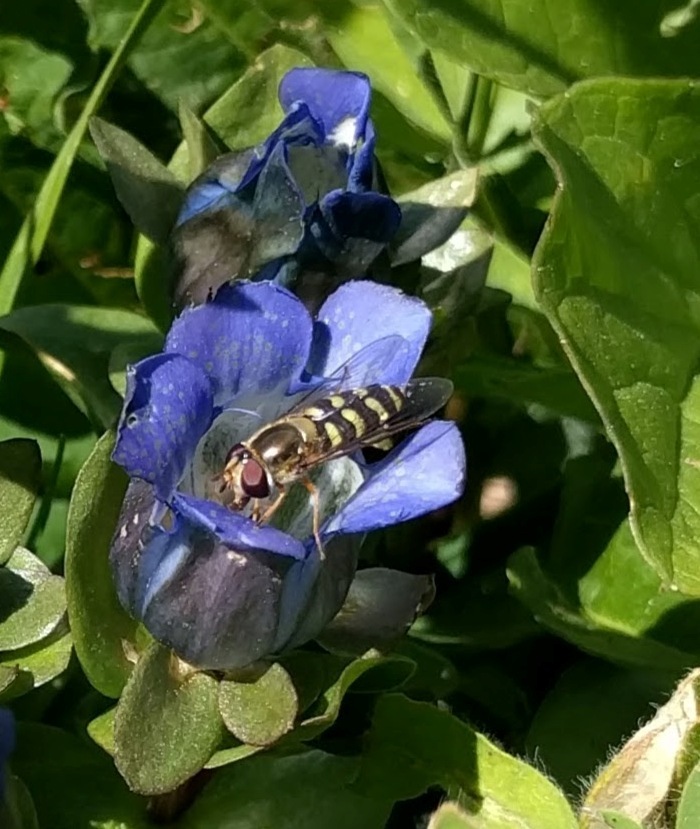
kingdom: Plantae
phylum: Tracheophyta
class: Magnoliopsida
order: Gentianales
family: Gentianaceae
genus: Gentiana
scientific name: Gentiana calycosa
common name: Rainier pleated gentian
